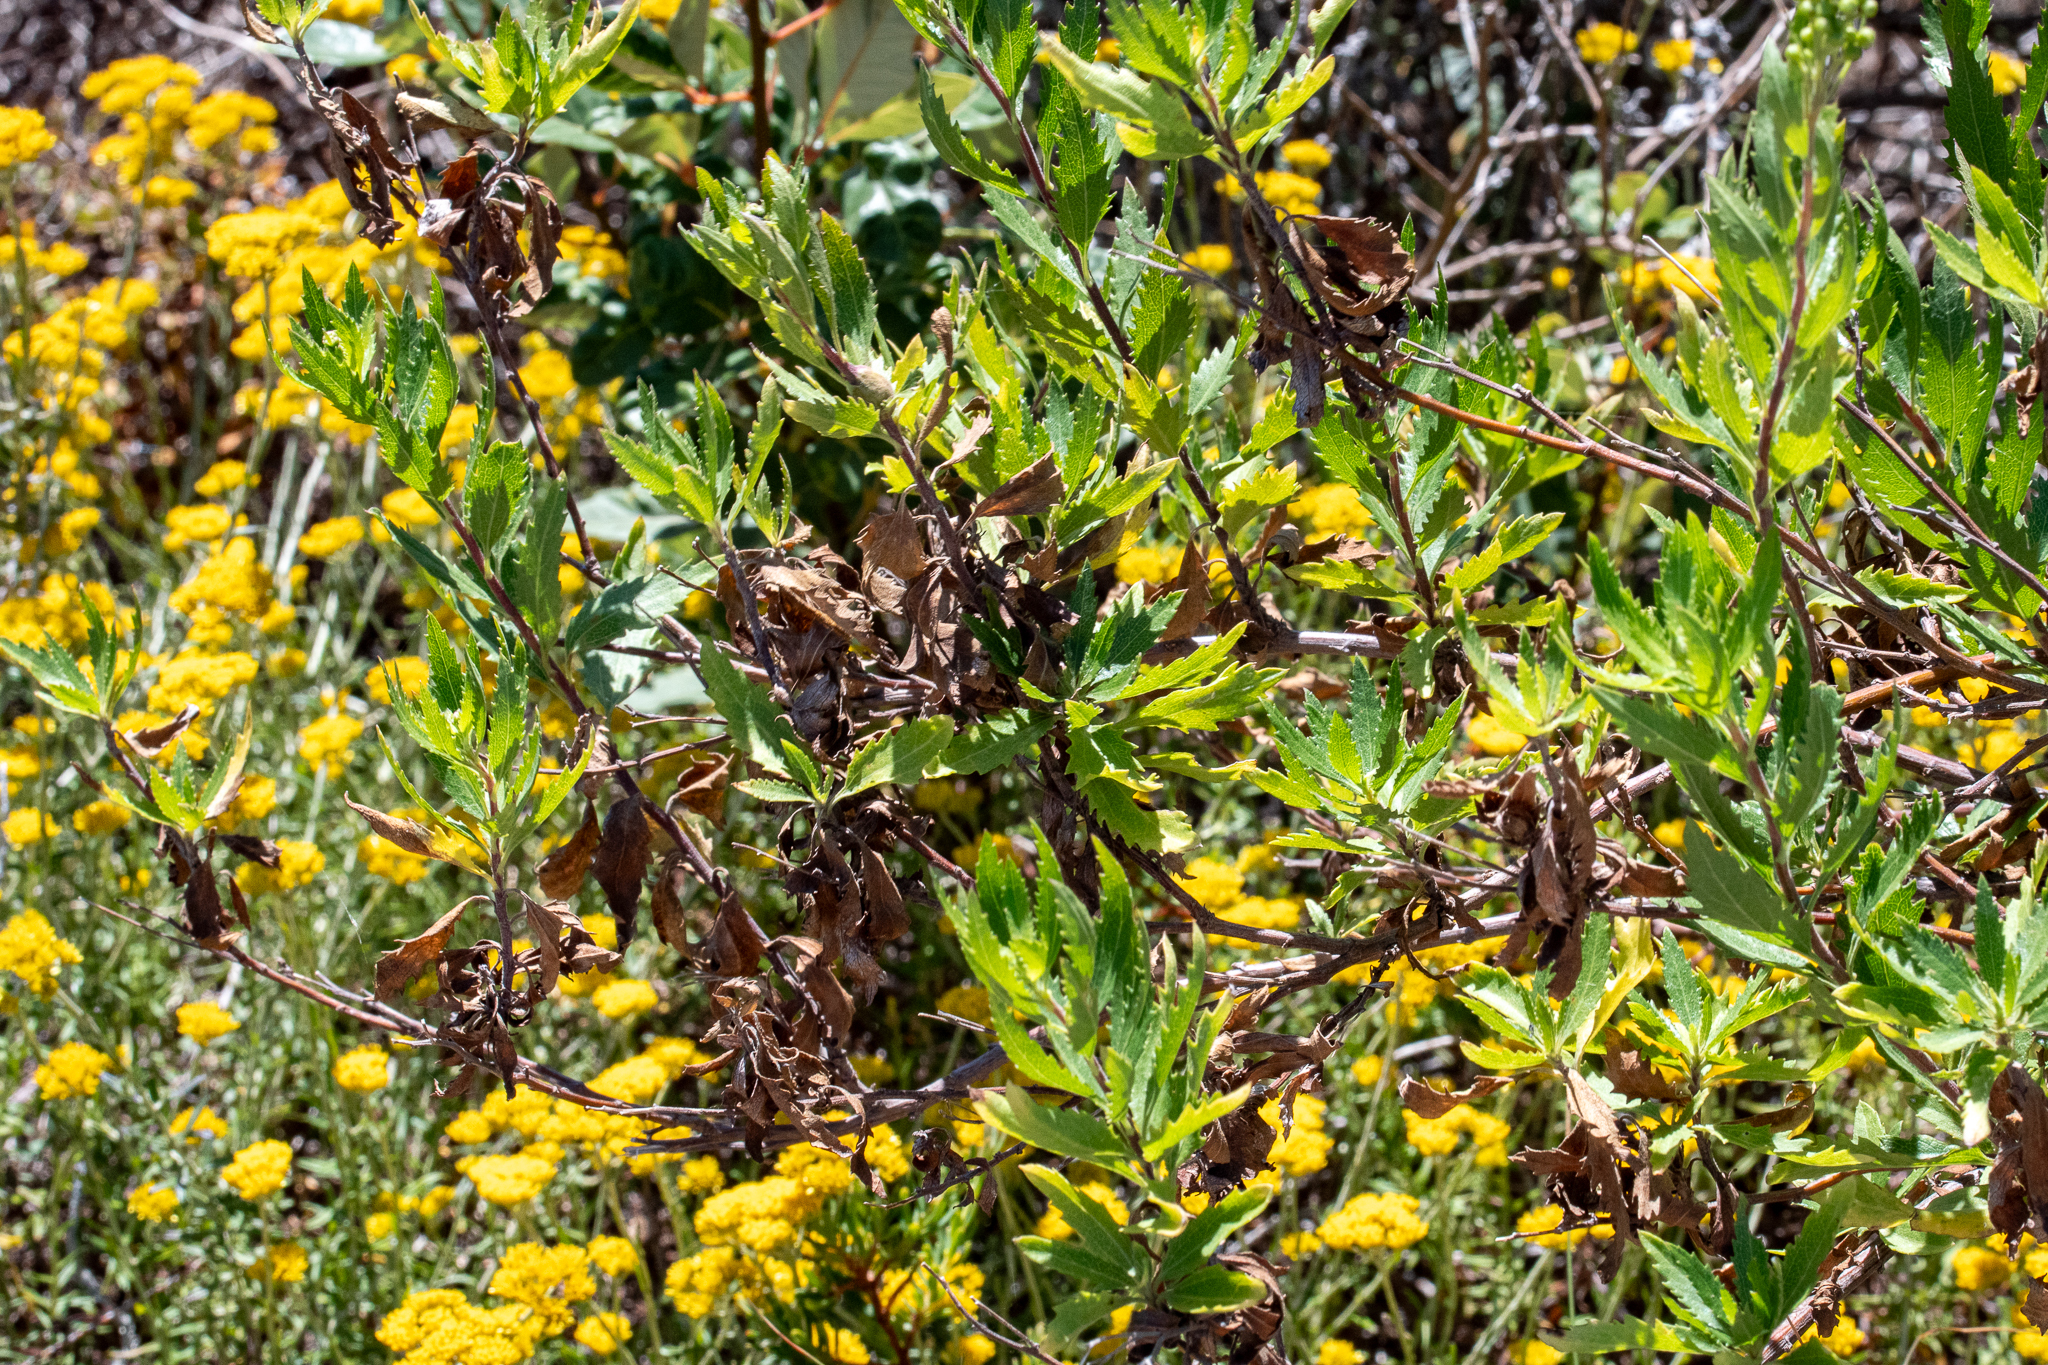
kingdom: Plantae
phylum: Tracheophyta
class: Magnoliopsida
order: Asterales
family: Asteraceae
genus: Senecio
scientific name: Senecio halimifolius
